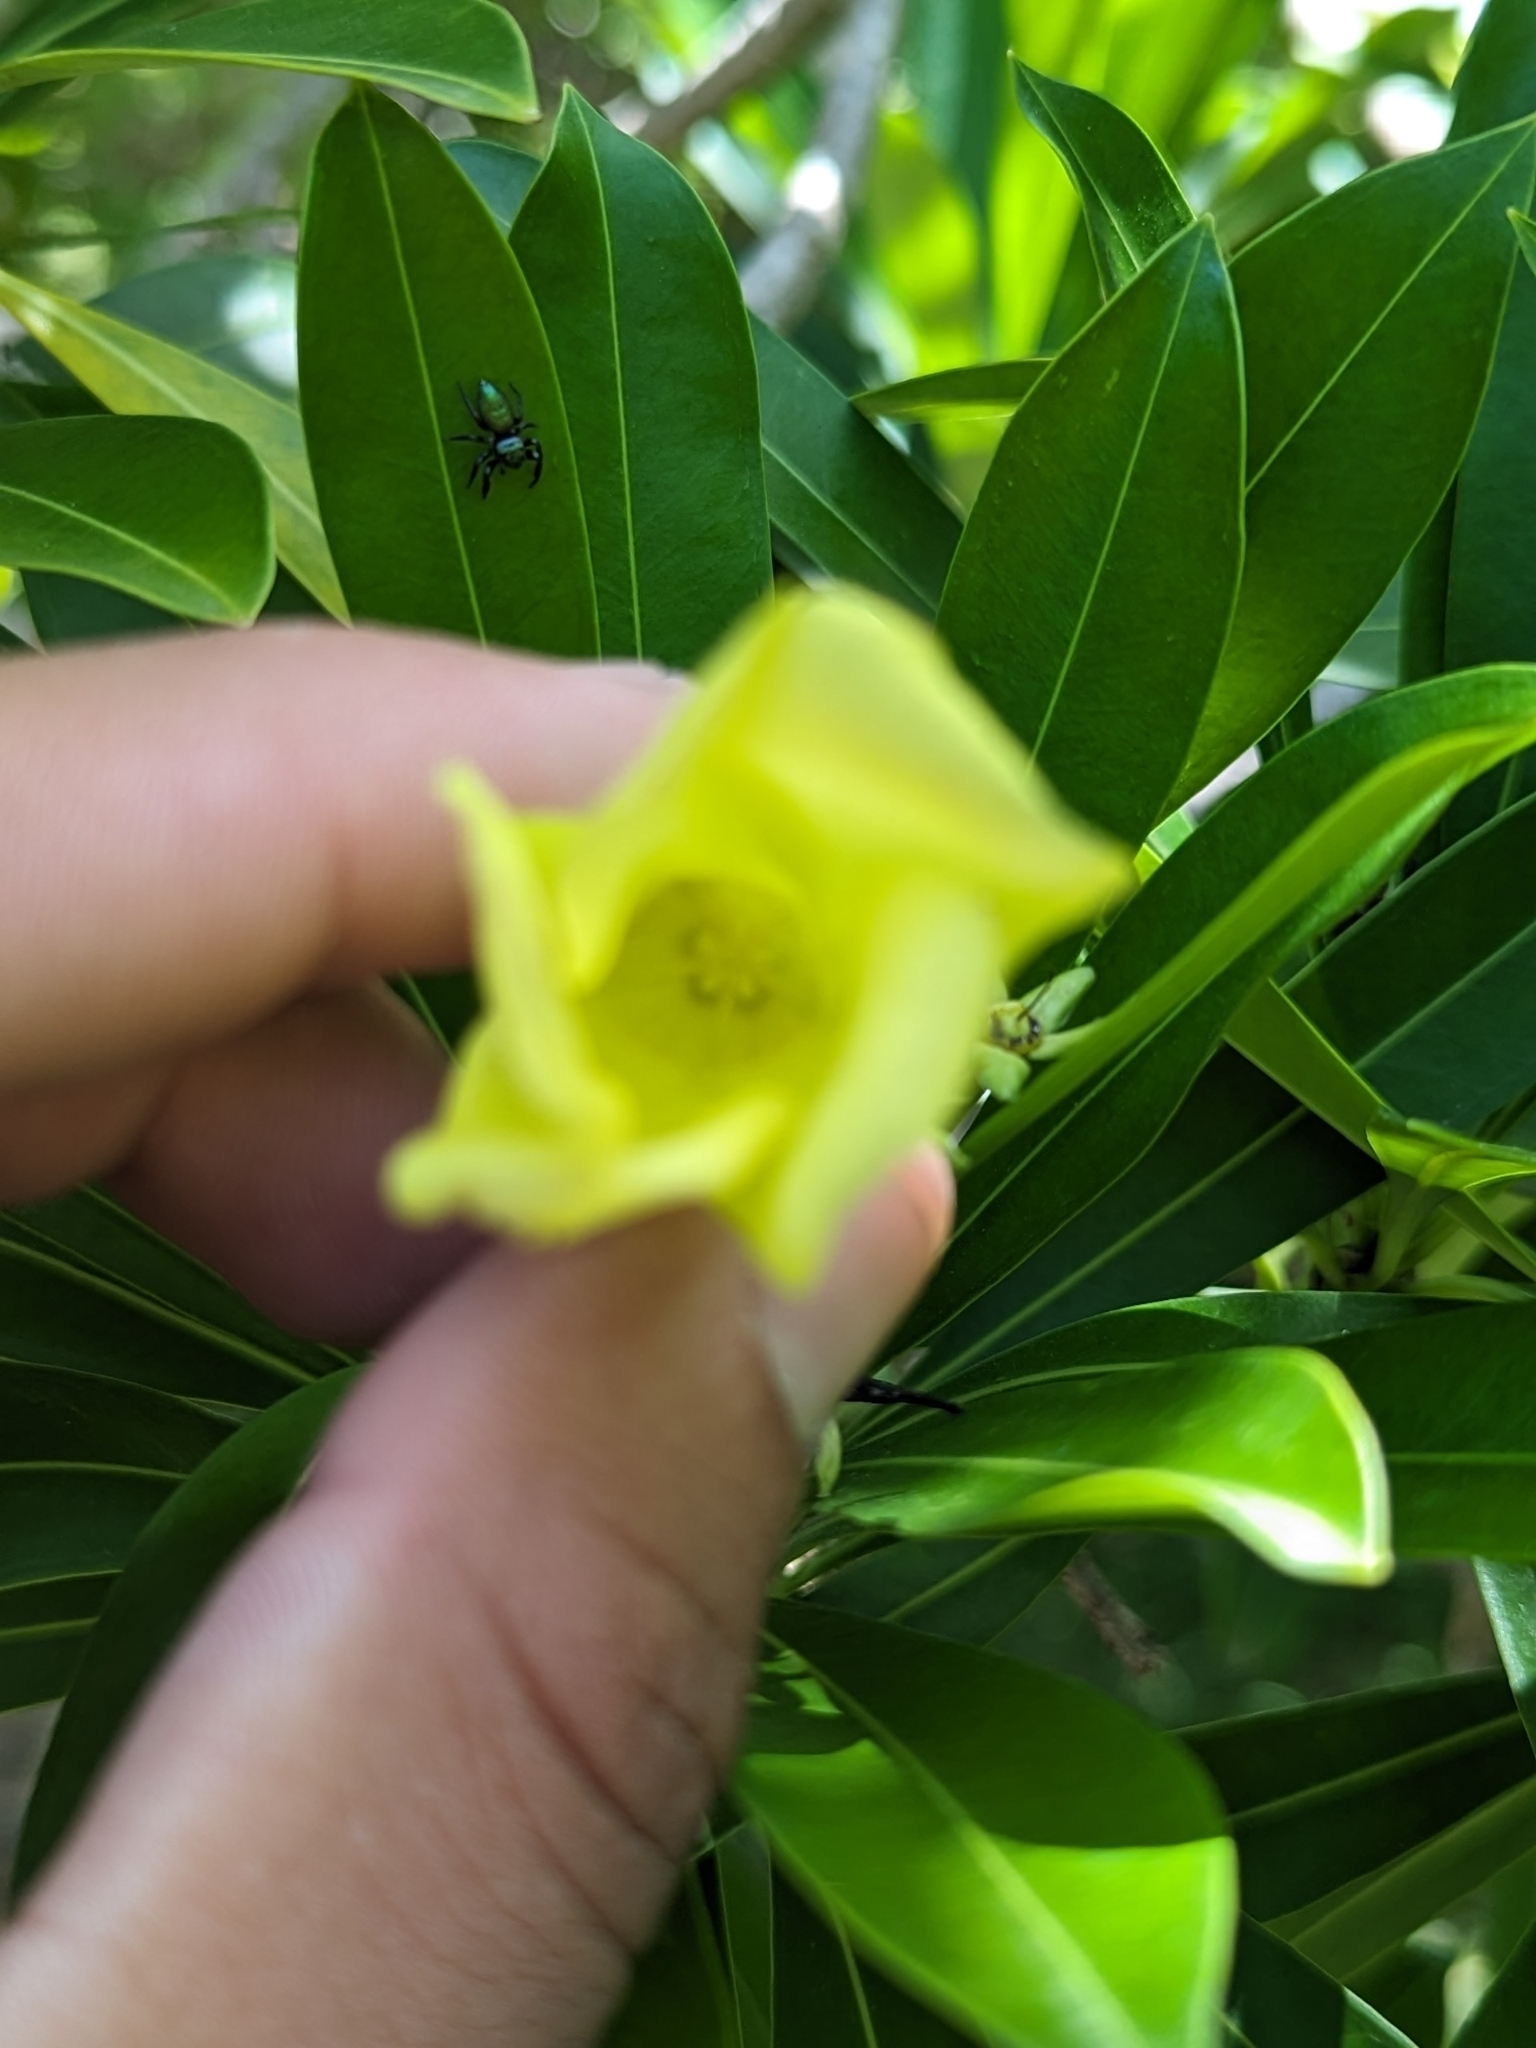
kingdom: Plantae
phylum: Tracheophyta
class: Magnoliopsida
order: Gentianales
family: Apocynaceae
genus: Cascabela
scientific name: Cascabela gaumeri
